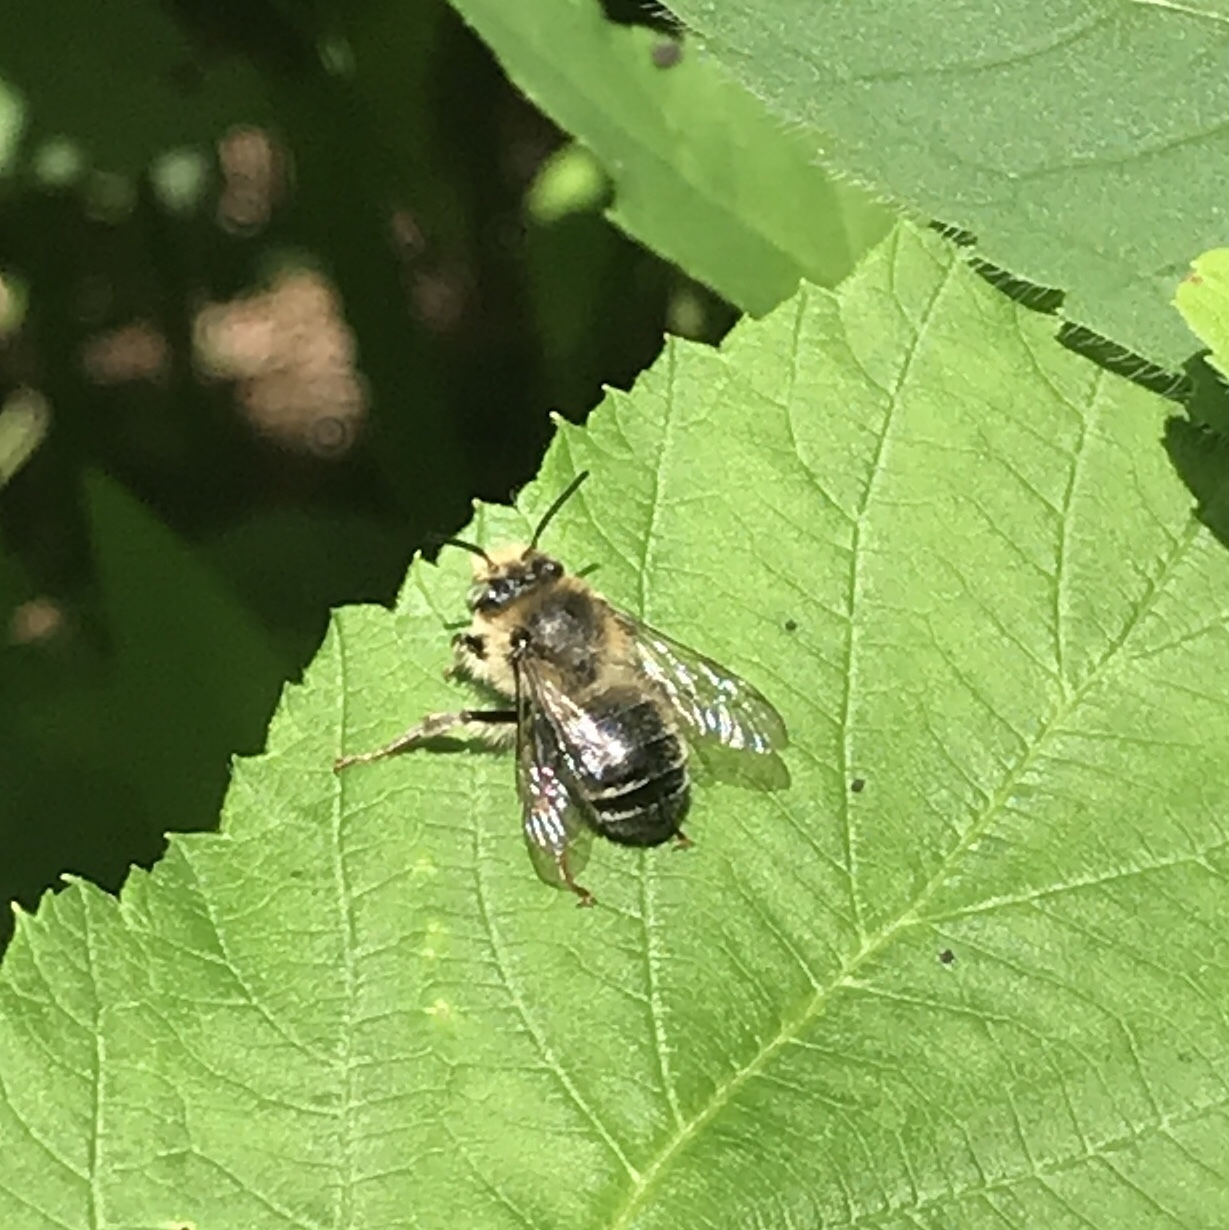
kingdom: Animalia
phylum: Arthropoda
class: Insecta
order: Hymenoptera
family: Apidae
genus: Anthophora
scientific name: Anthophora terminalis
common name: Orange-tipped wood-digger bee
